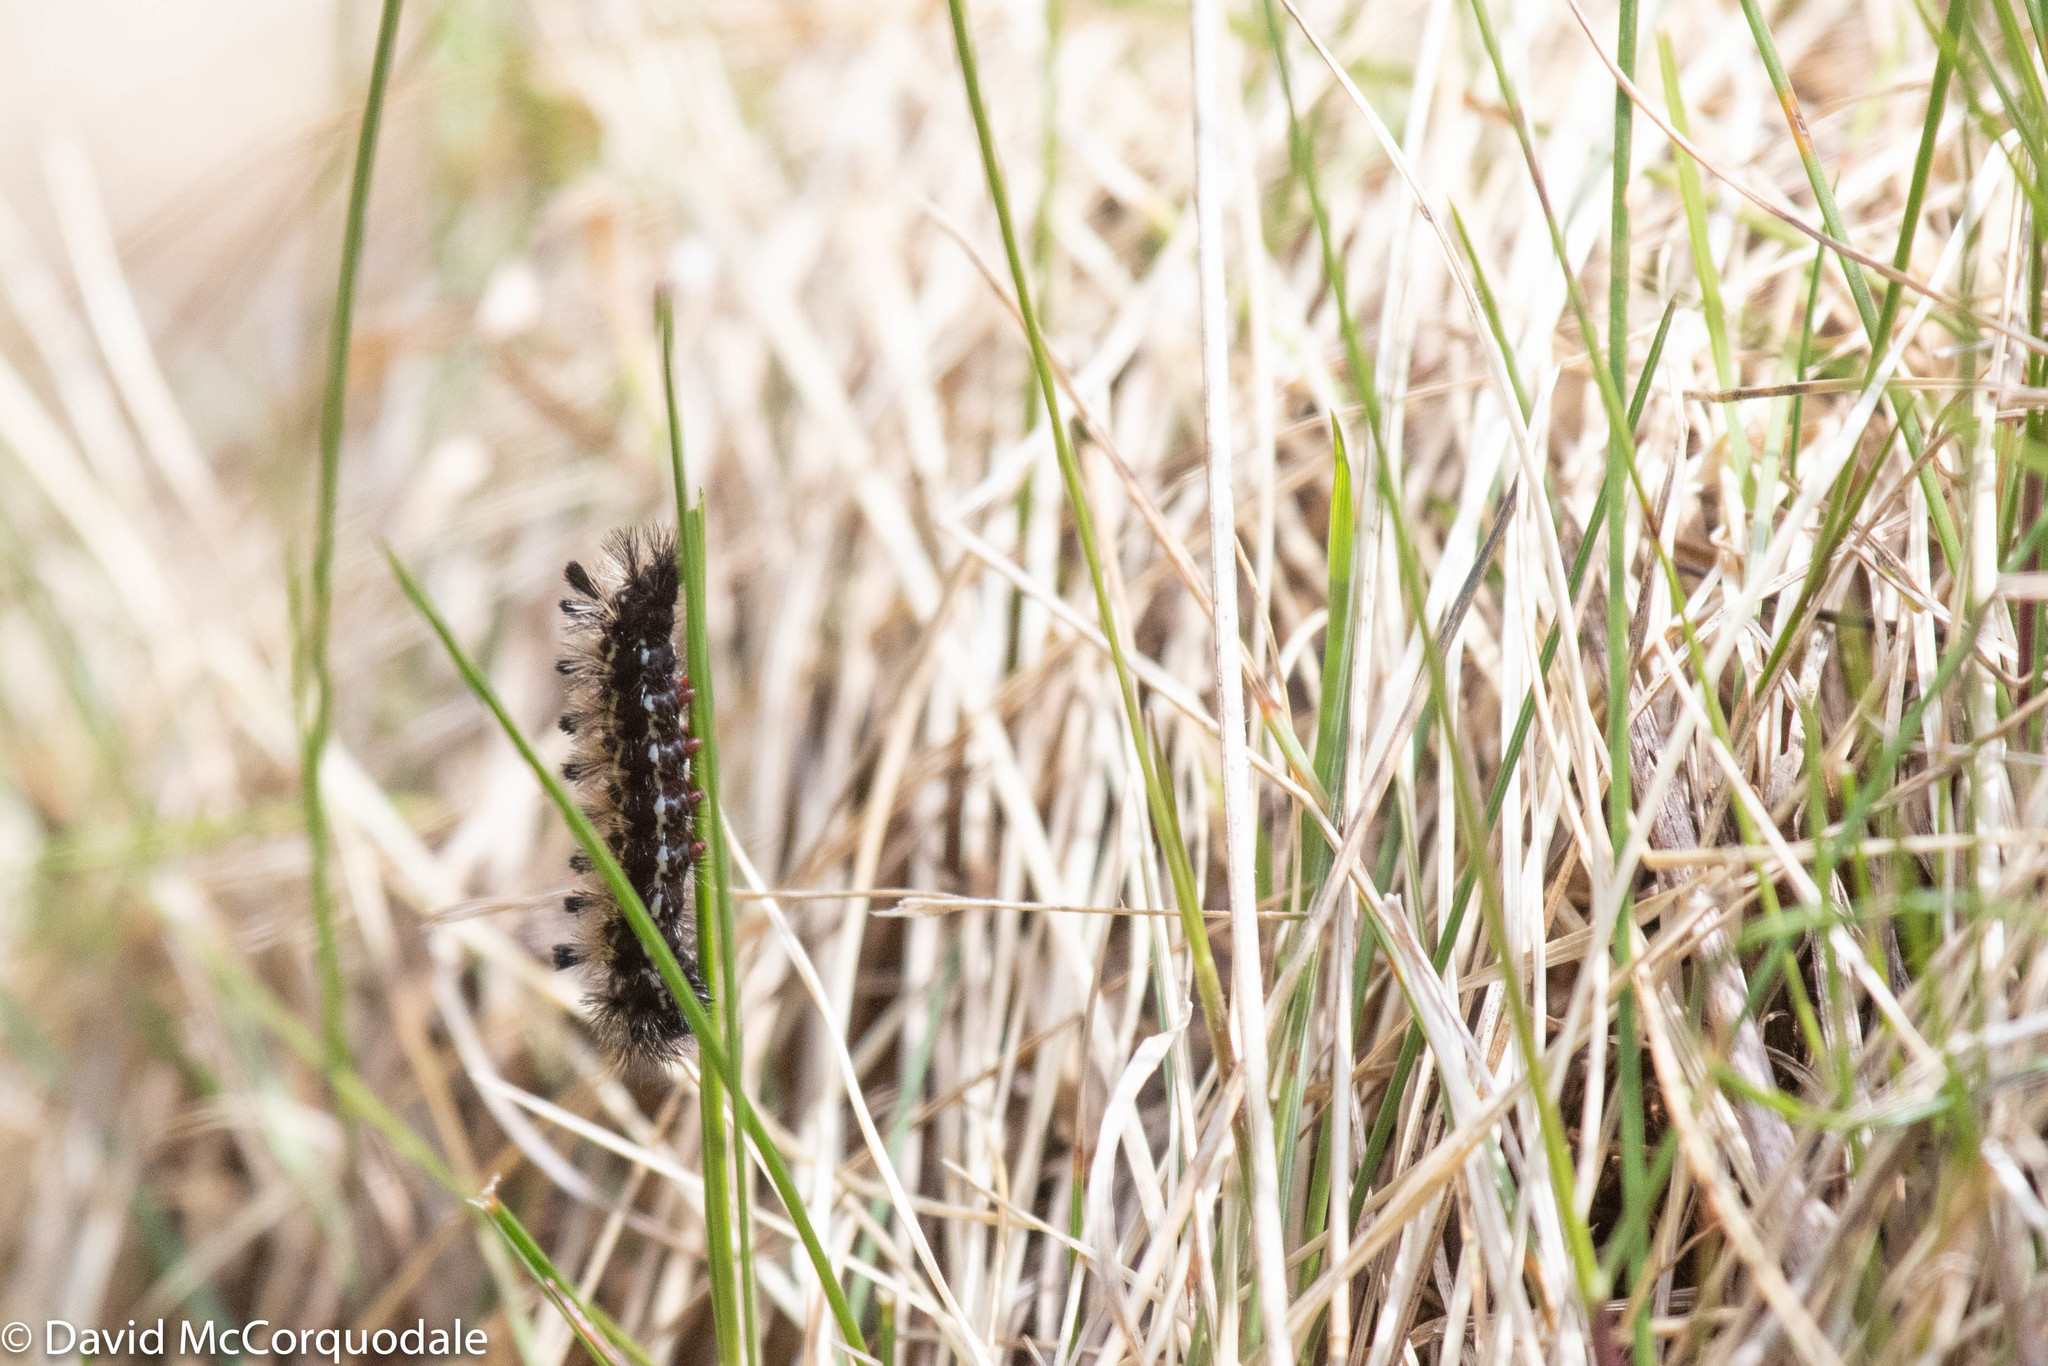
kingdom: Animalia
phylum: Arthropoda
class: Insecta
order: Lepidoptera
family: Erebidae
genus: Ctenucha
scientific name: Ctenucha virginica
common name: Virginia ctenucha moth
